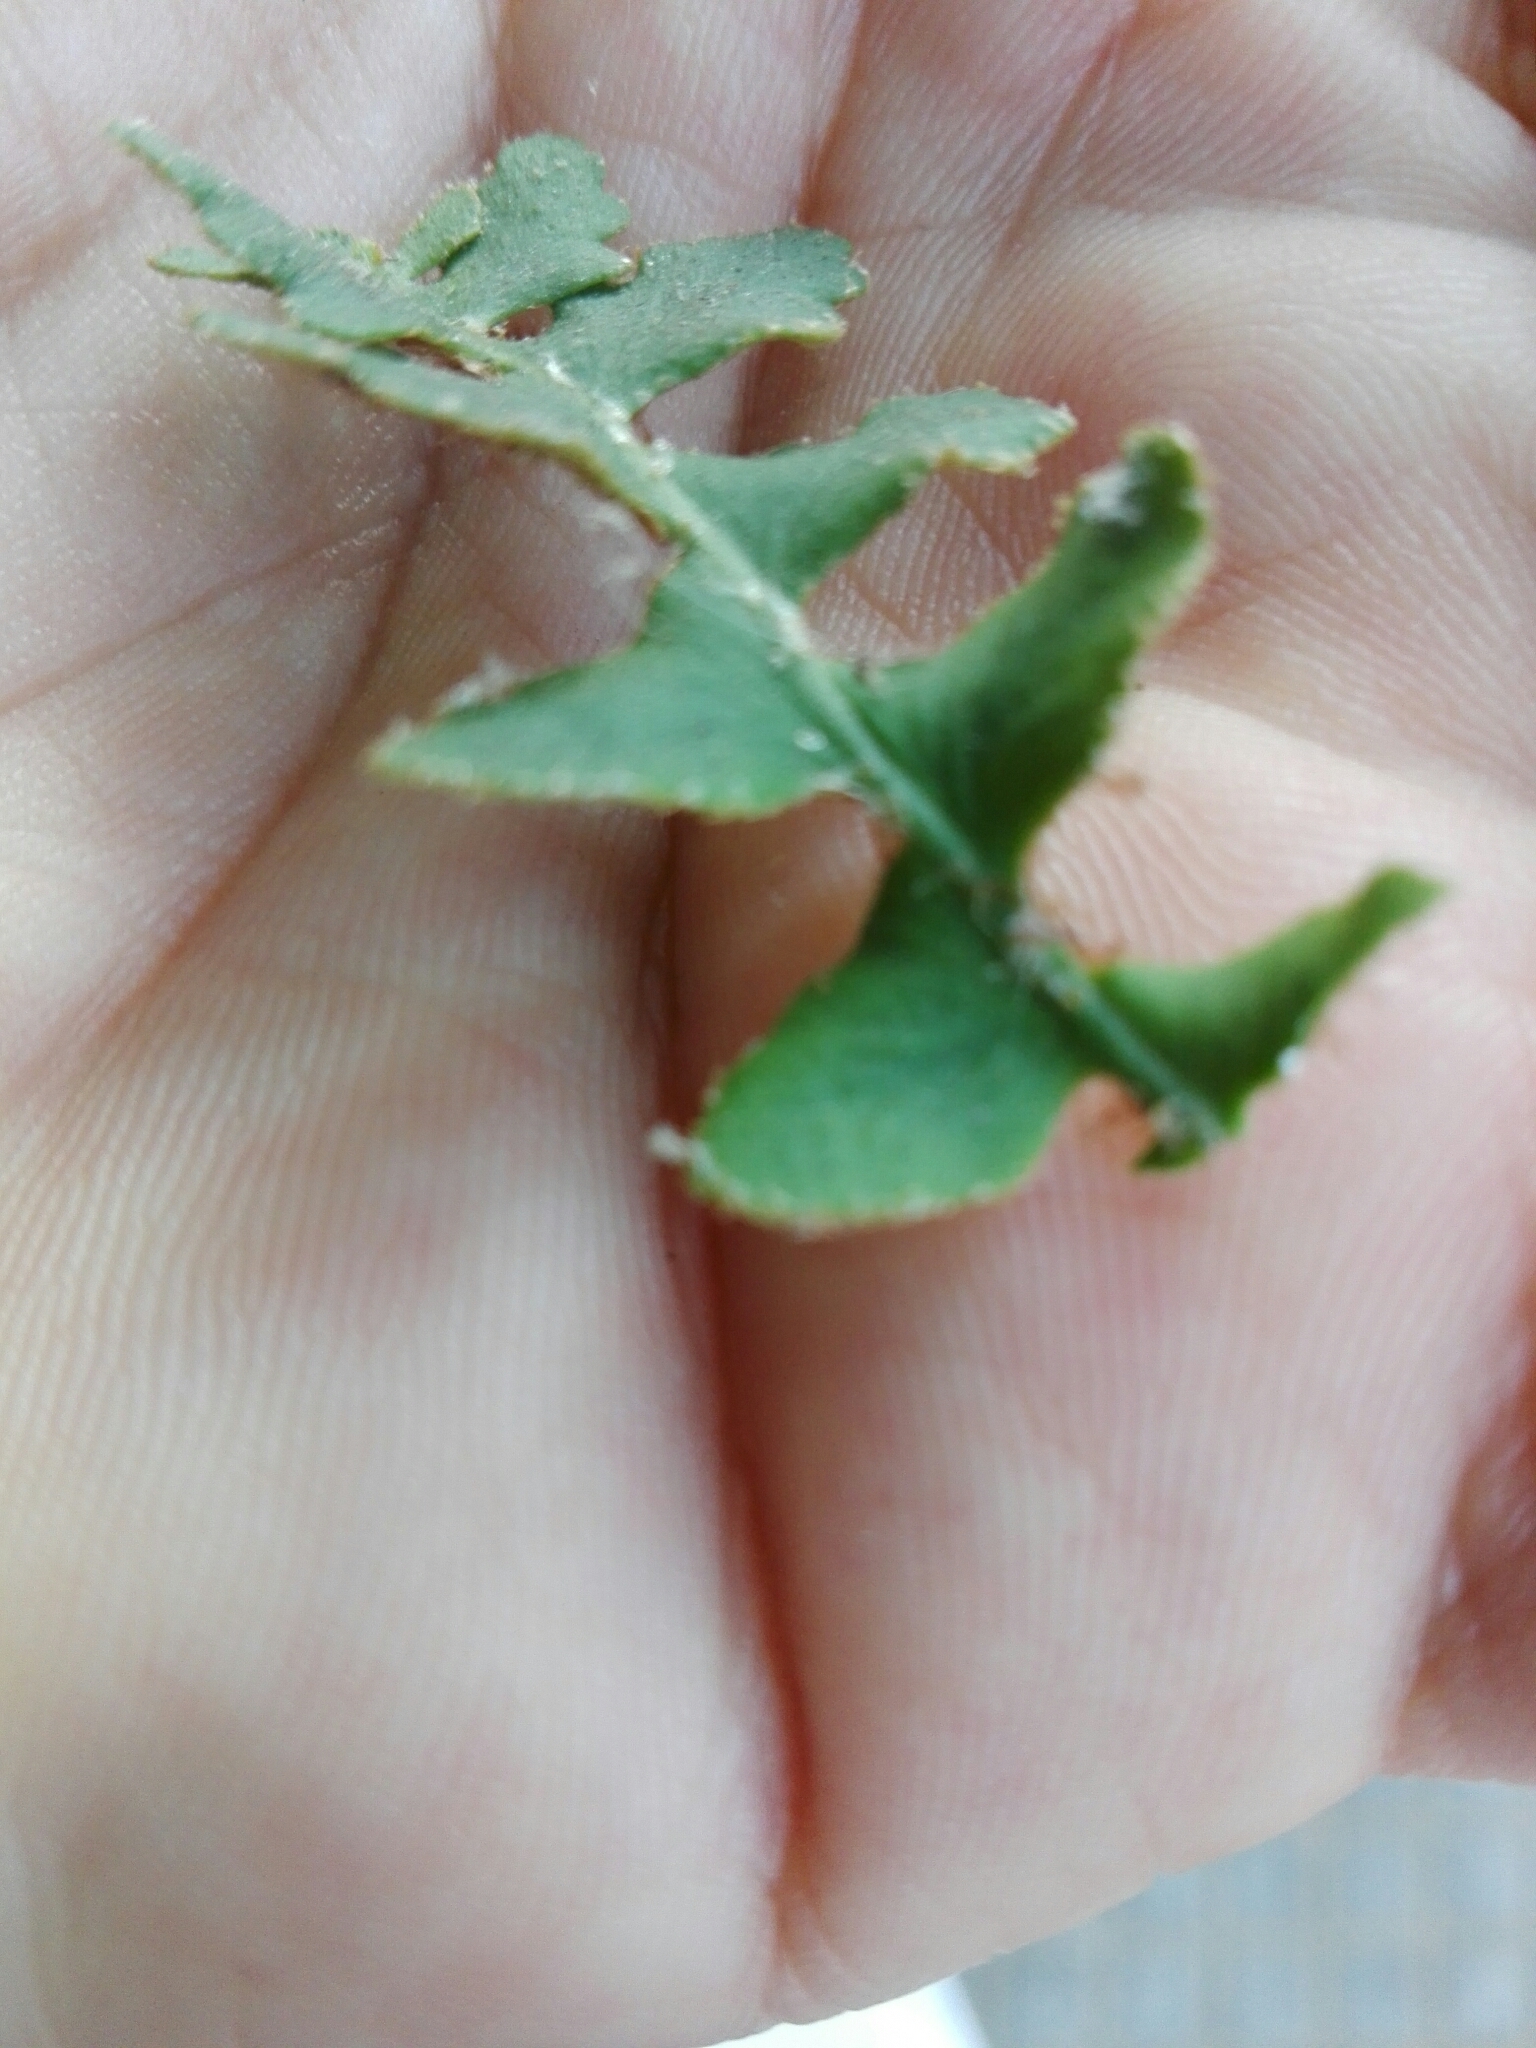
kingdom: Plantae
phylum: Tracheophyta
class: Polypodiopsida
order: Polypodiales
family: Aspleniaceae
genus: Asplenium
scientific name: Asplenium ceterach
